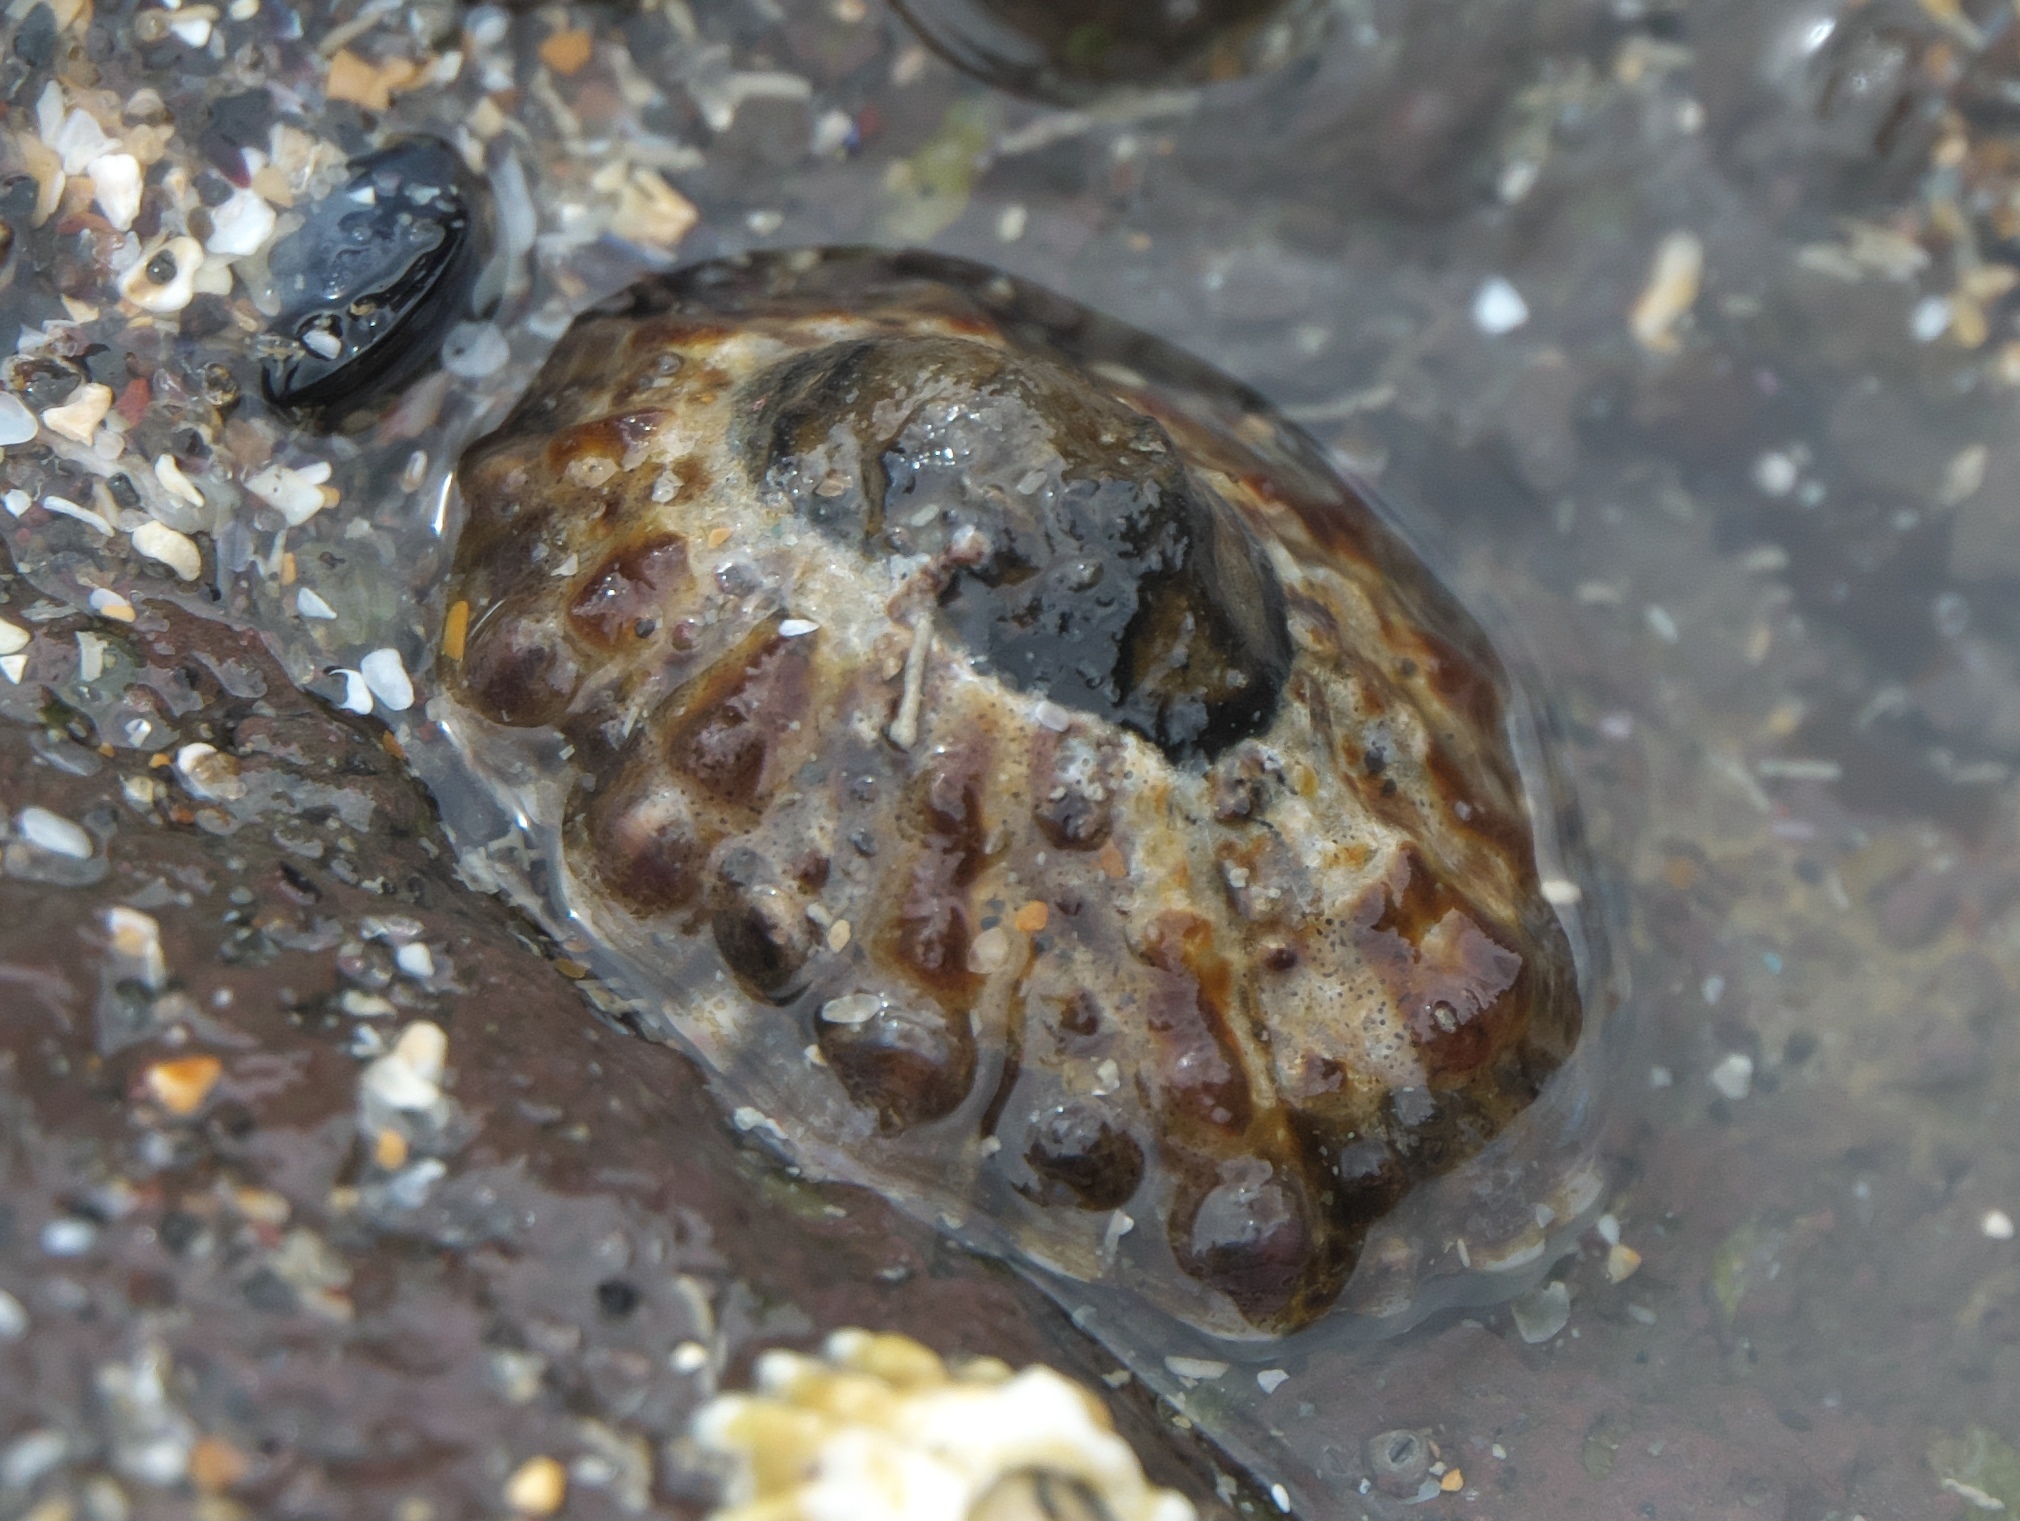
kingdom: Animalia
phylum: Mollusca
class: Gastropoda
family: Nacellidae
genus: Cellana
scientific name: Cellana ornata
